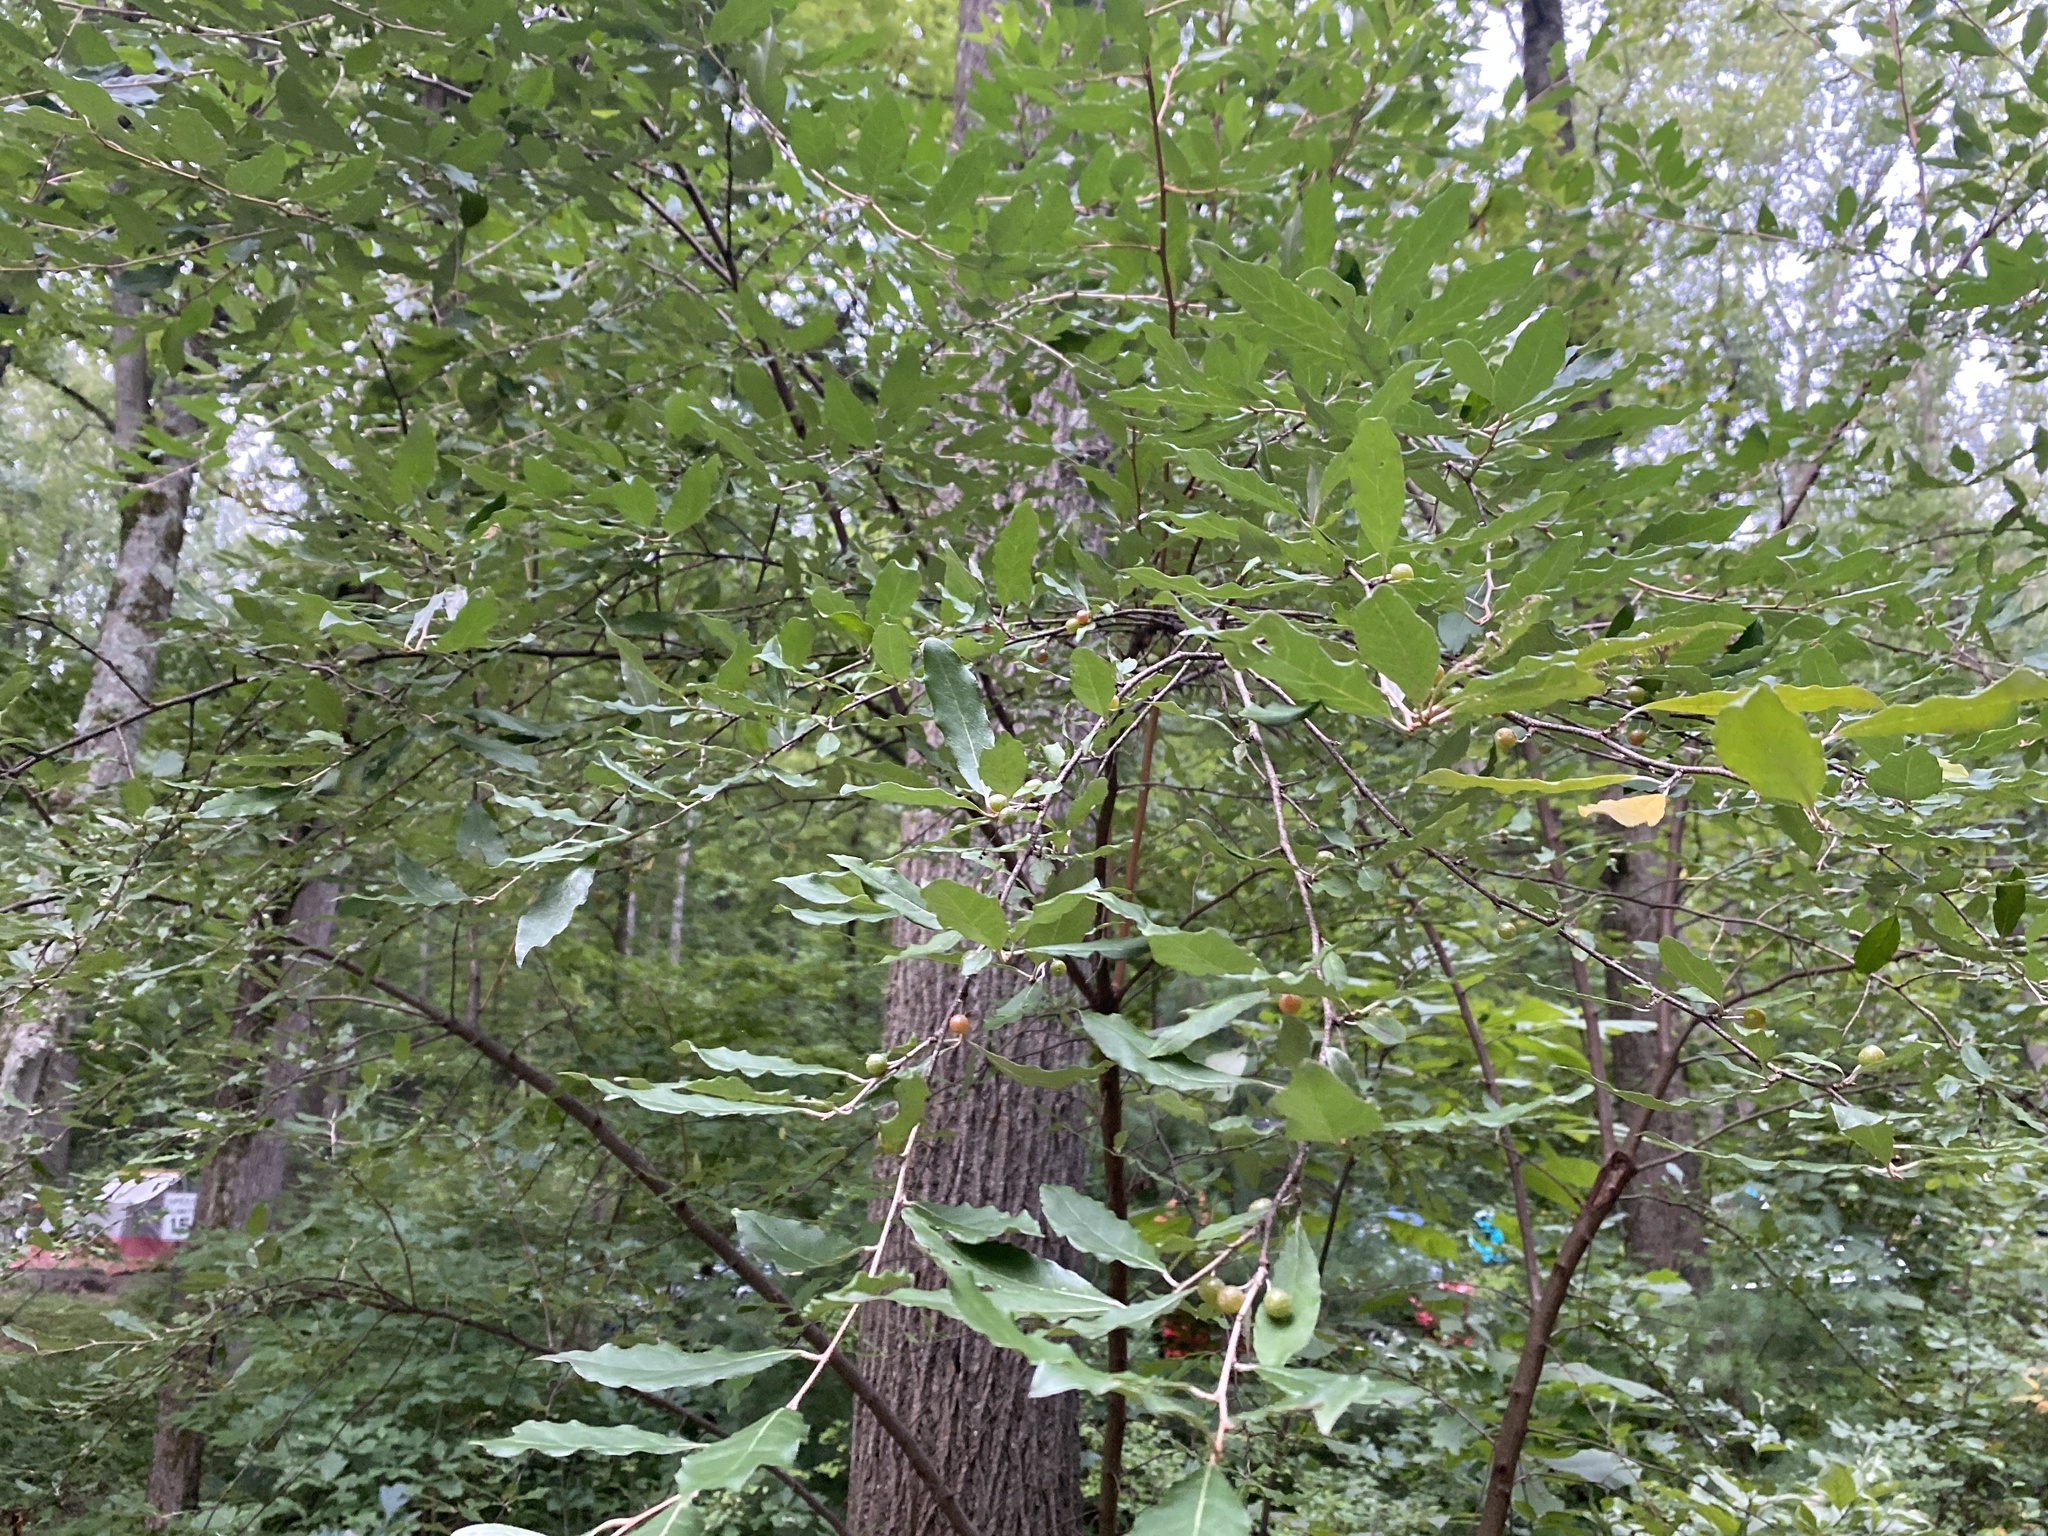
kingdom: Plantae
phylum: Tracheophyta
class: Magnoliopsida
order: Rosales
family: Elaeagnaceae
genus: Elaeagnus
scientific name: Elaeagnus umbellata
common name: Autumn olive
